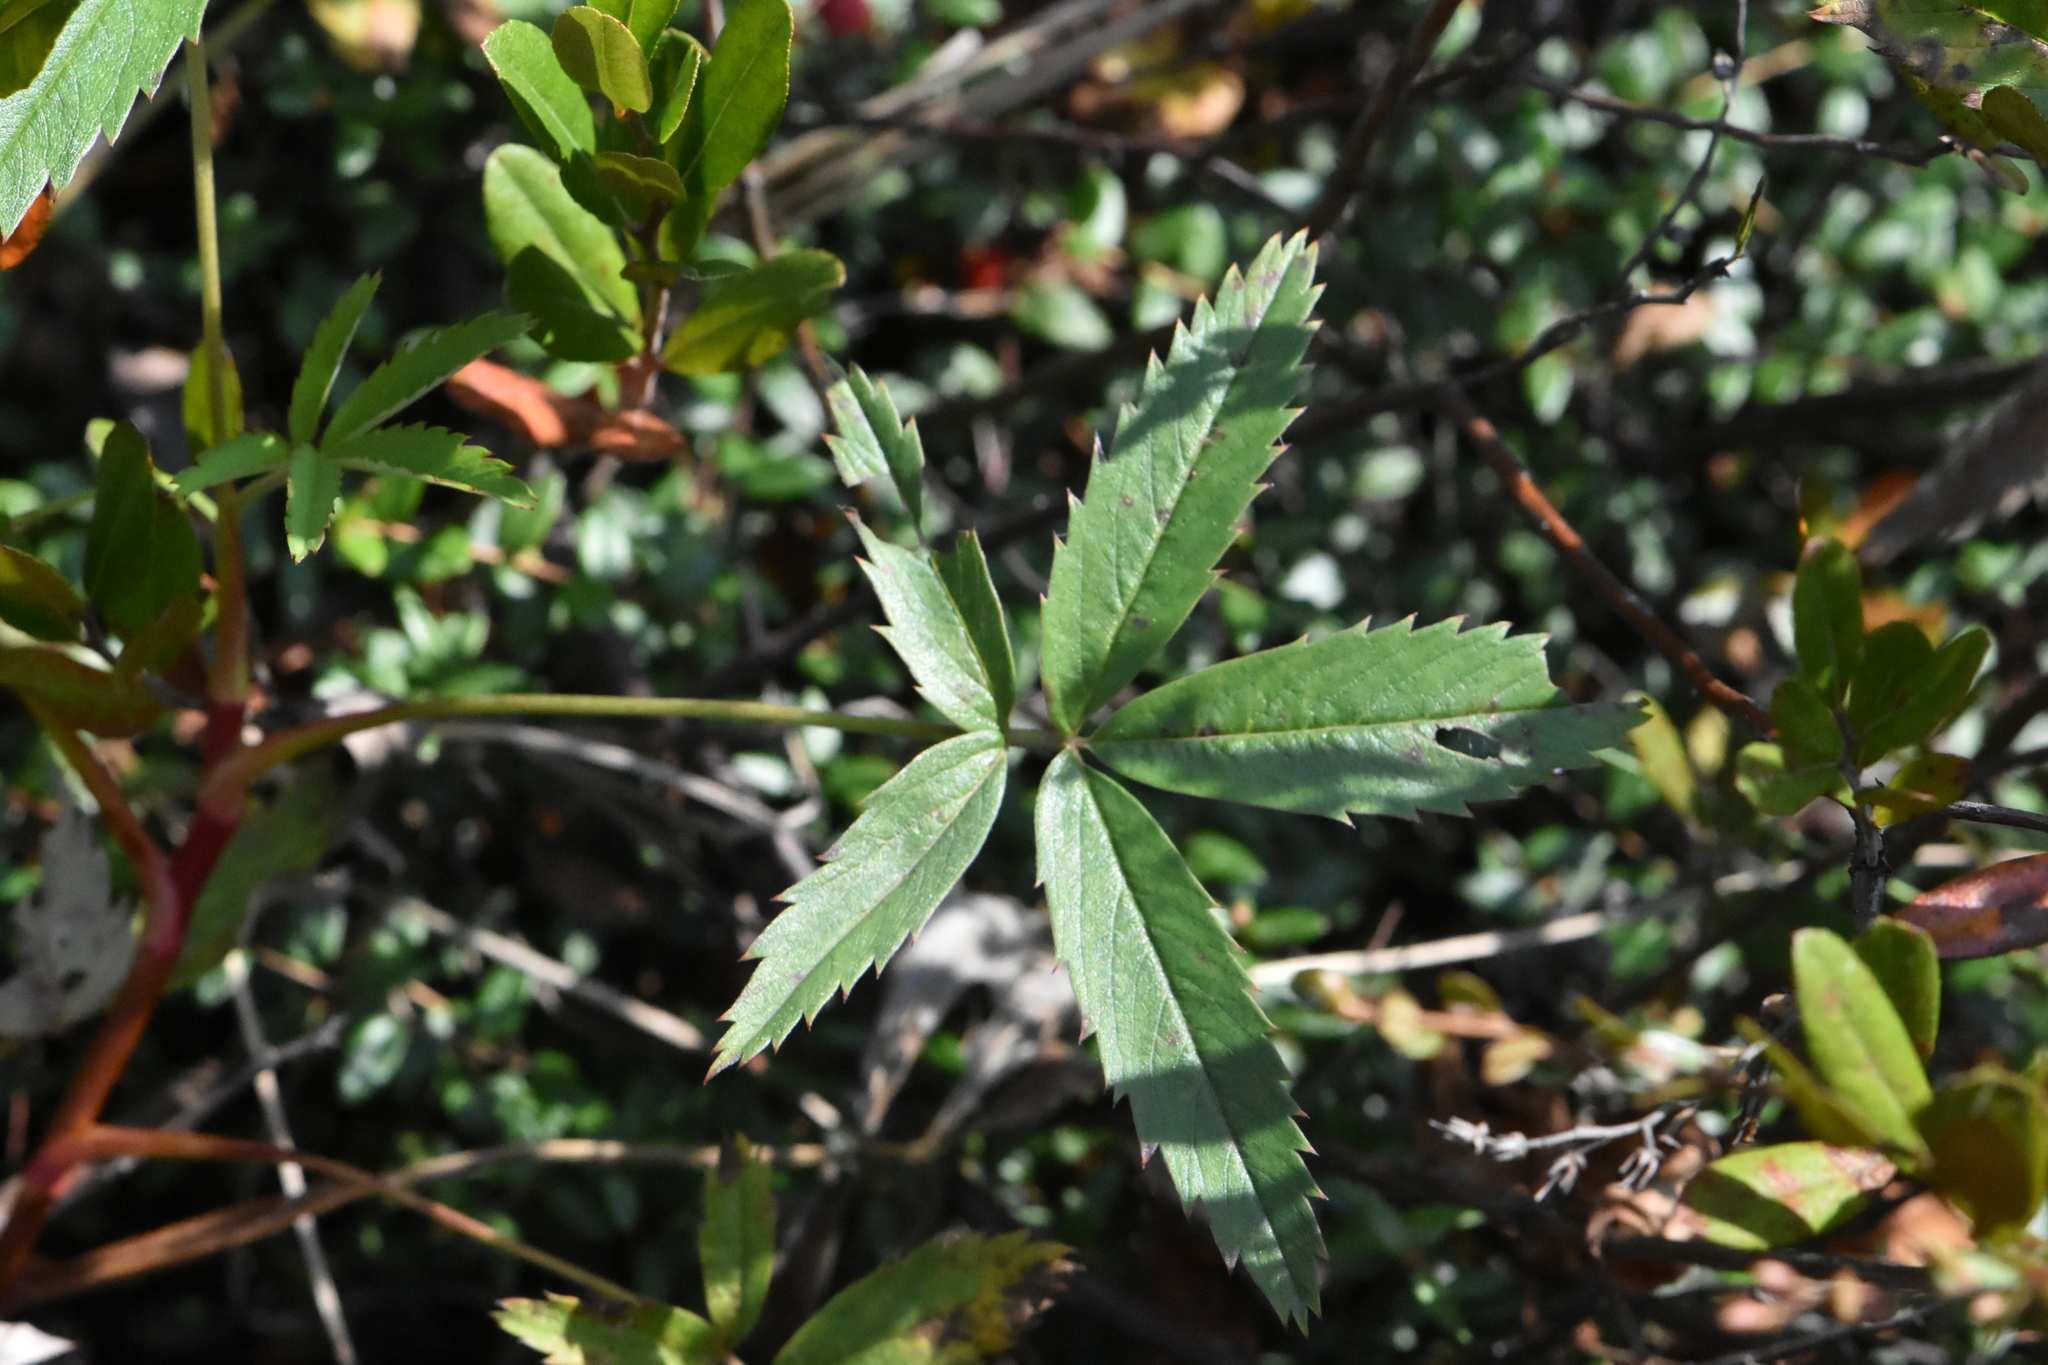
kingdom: Plantae
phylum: Tracheophyta
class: Magnoliopsida
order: Rosales
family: Rosaceae
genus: Comarum
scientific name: Comarum palustre
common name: Marsh cinquefoil
